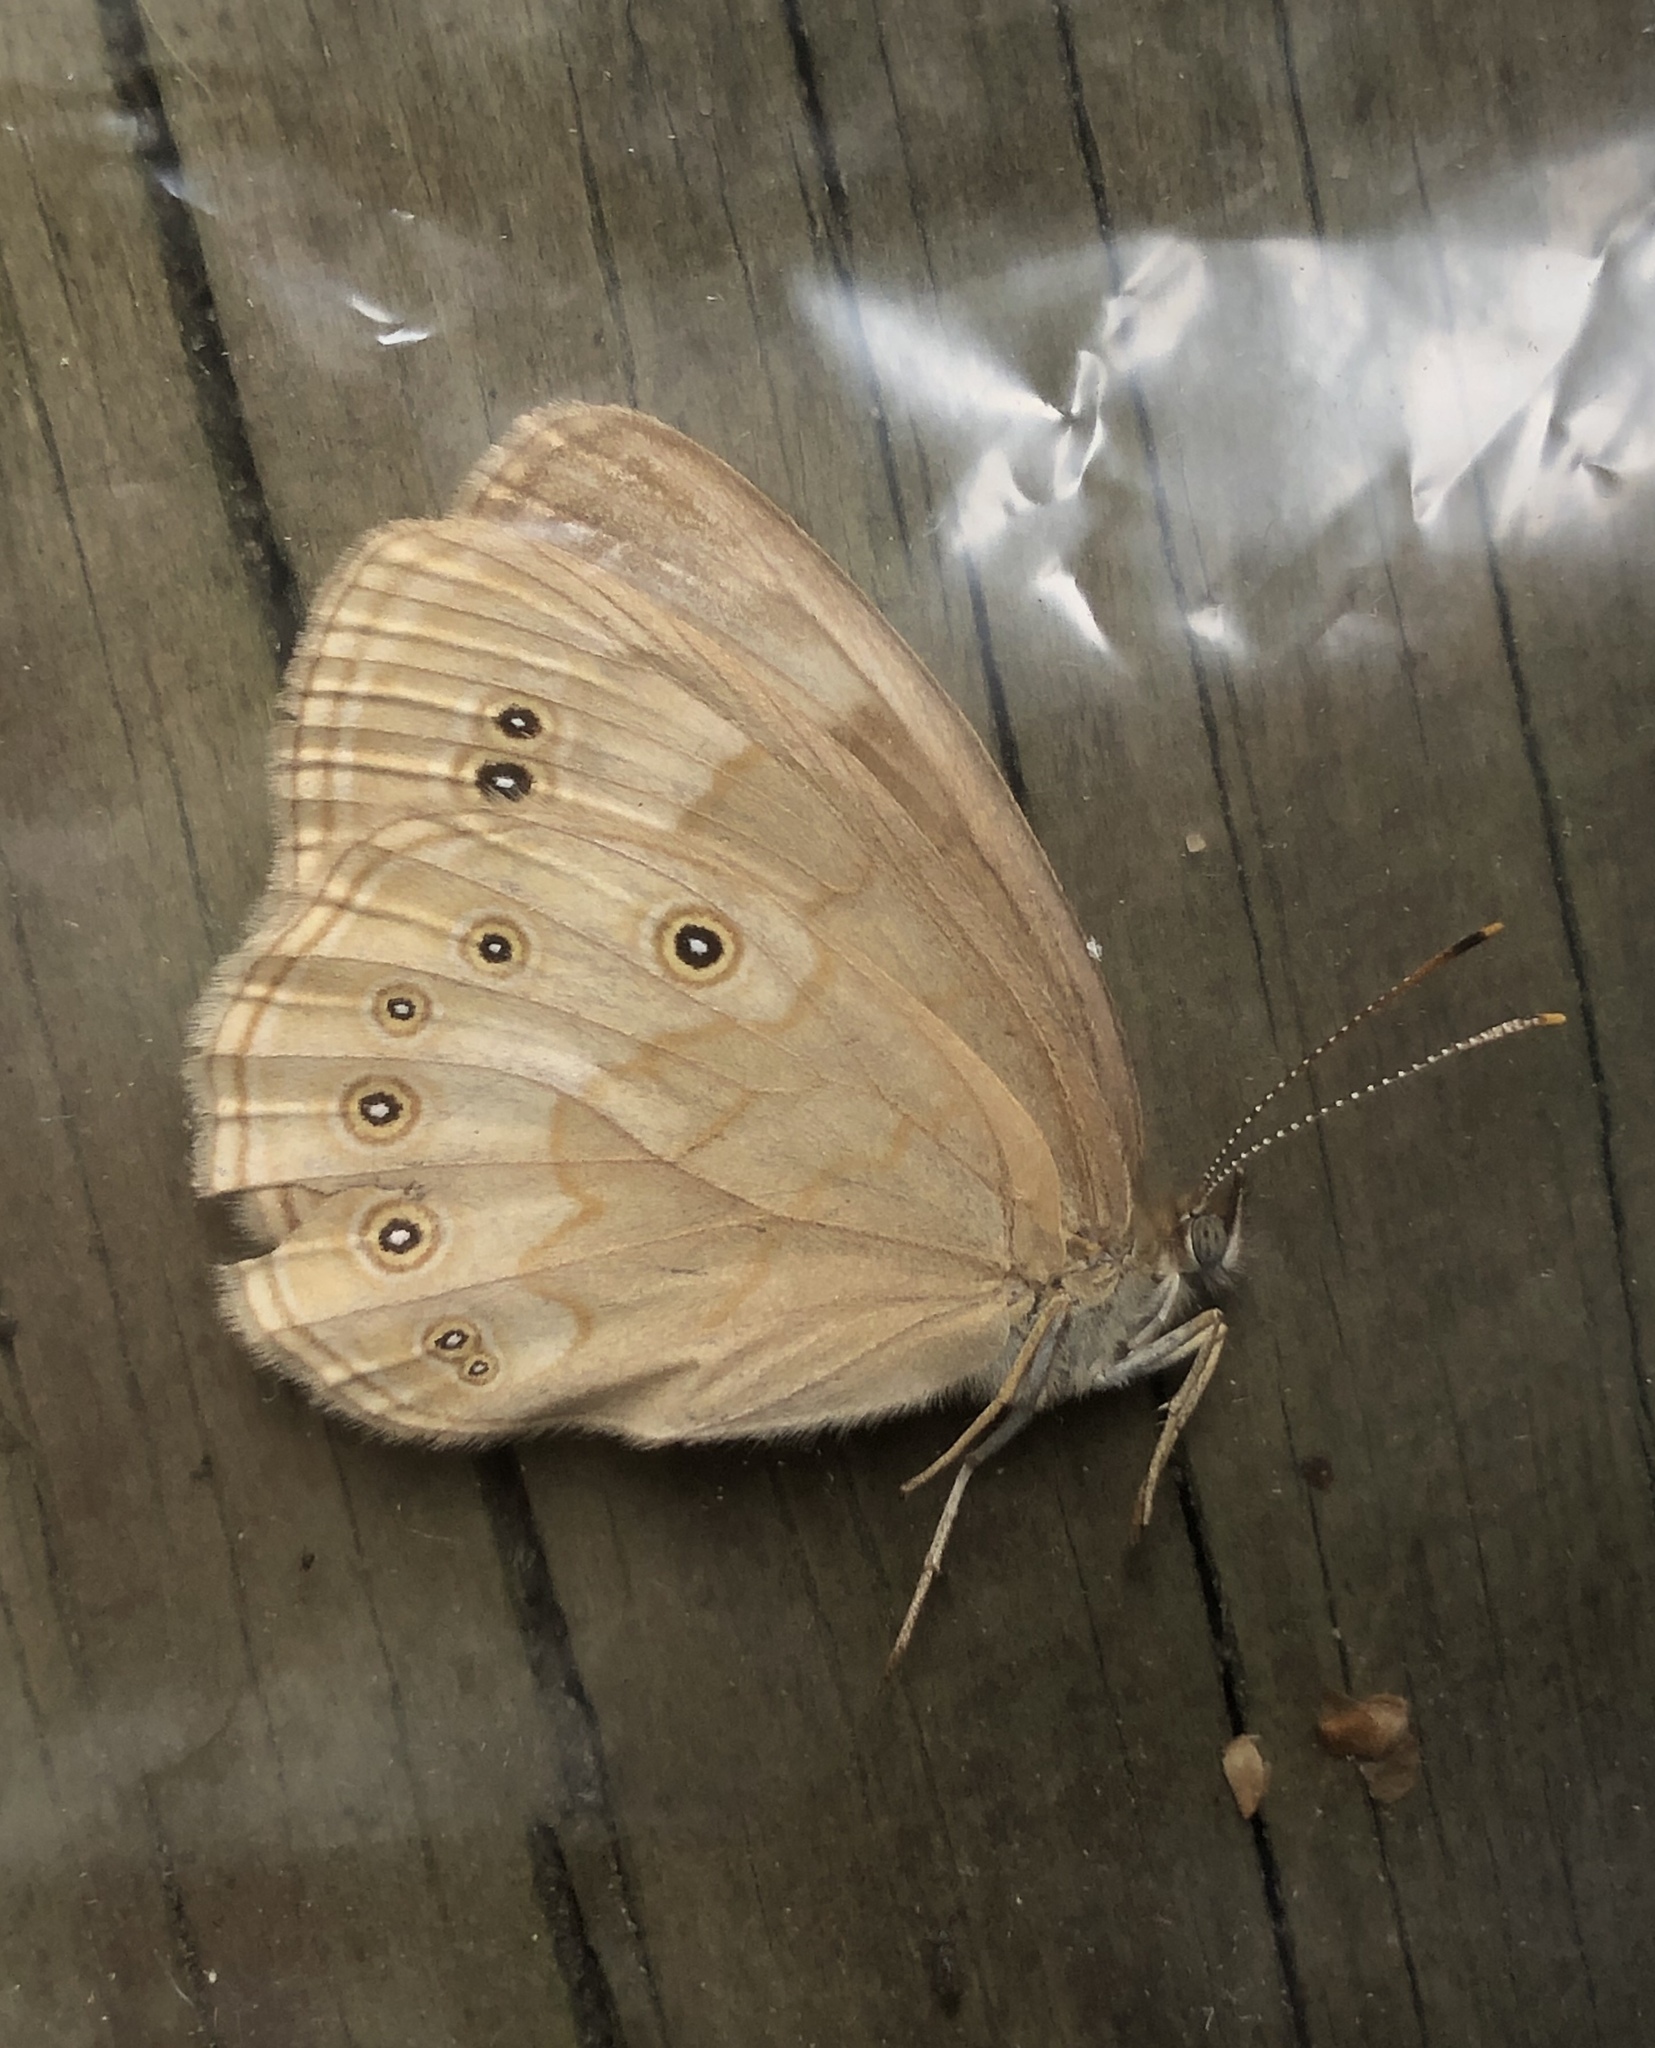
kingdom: Animalia
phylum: Arthropoda
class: Insecta
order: Lepidoptera
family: Nymphalidae
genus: Lethe
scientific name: Lethe eurydice
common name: Eyed brown
